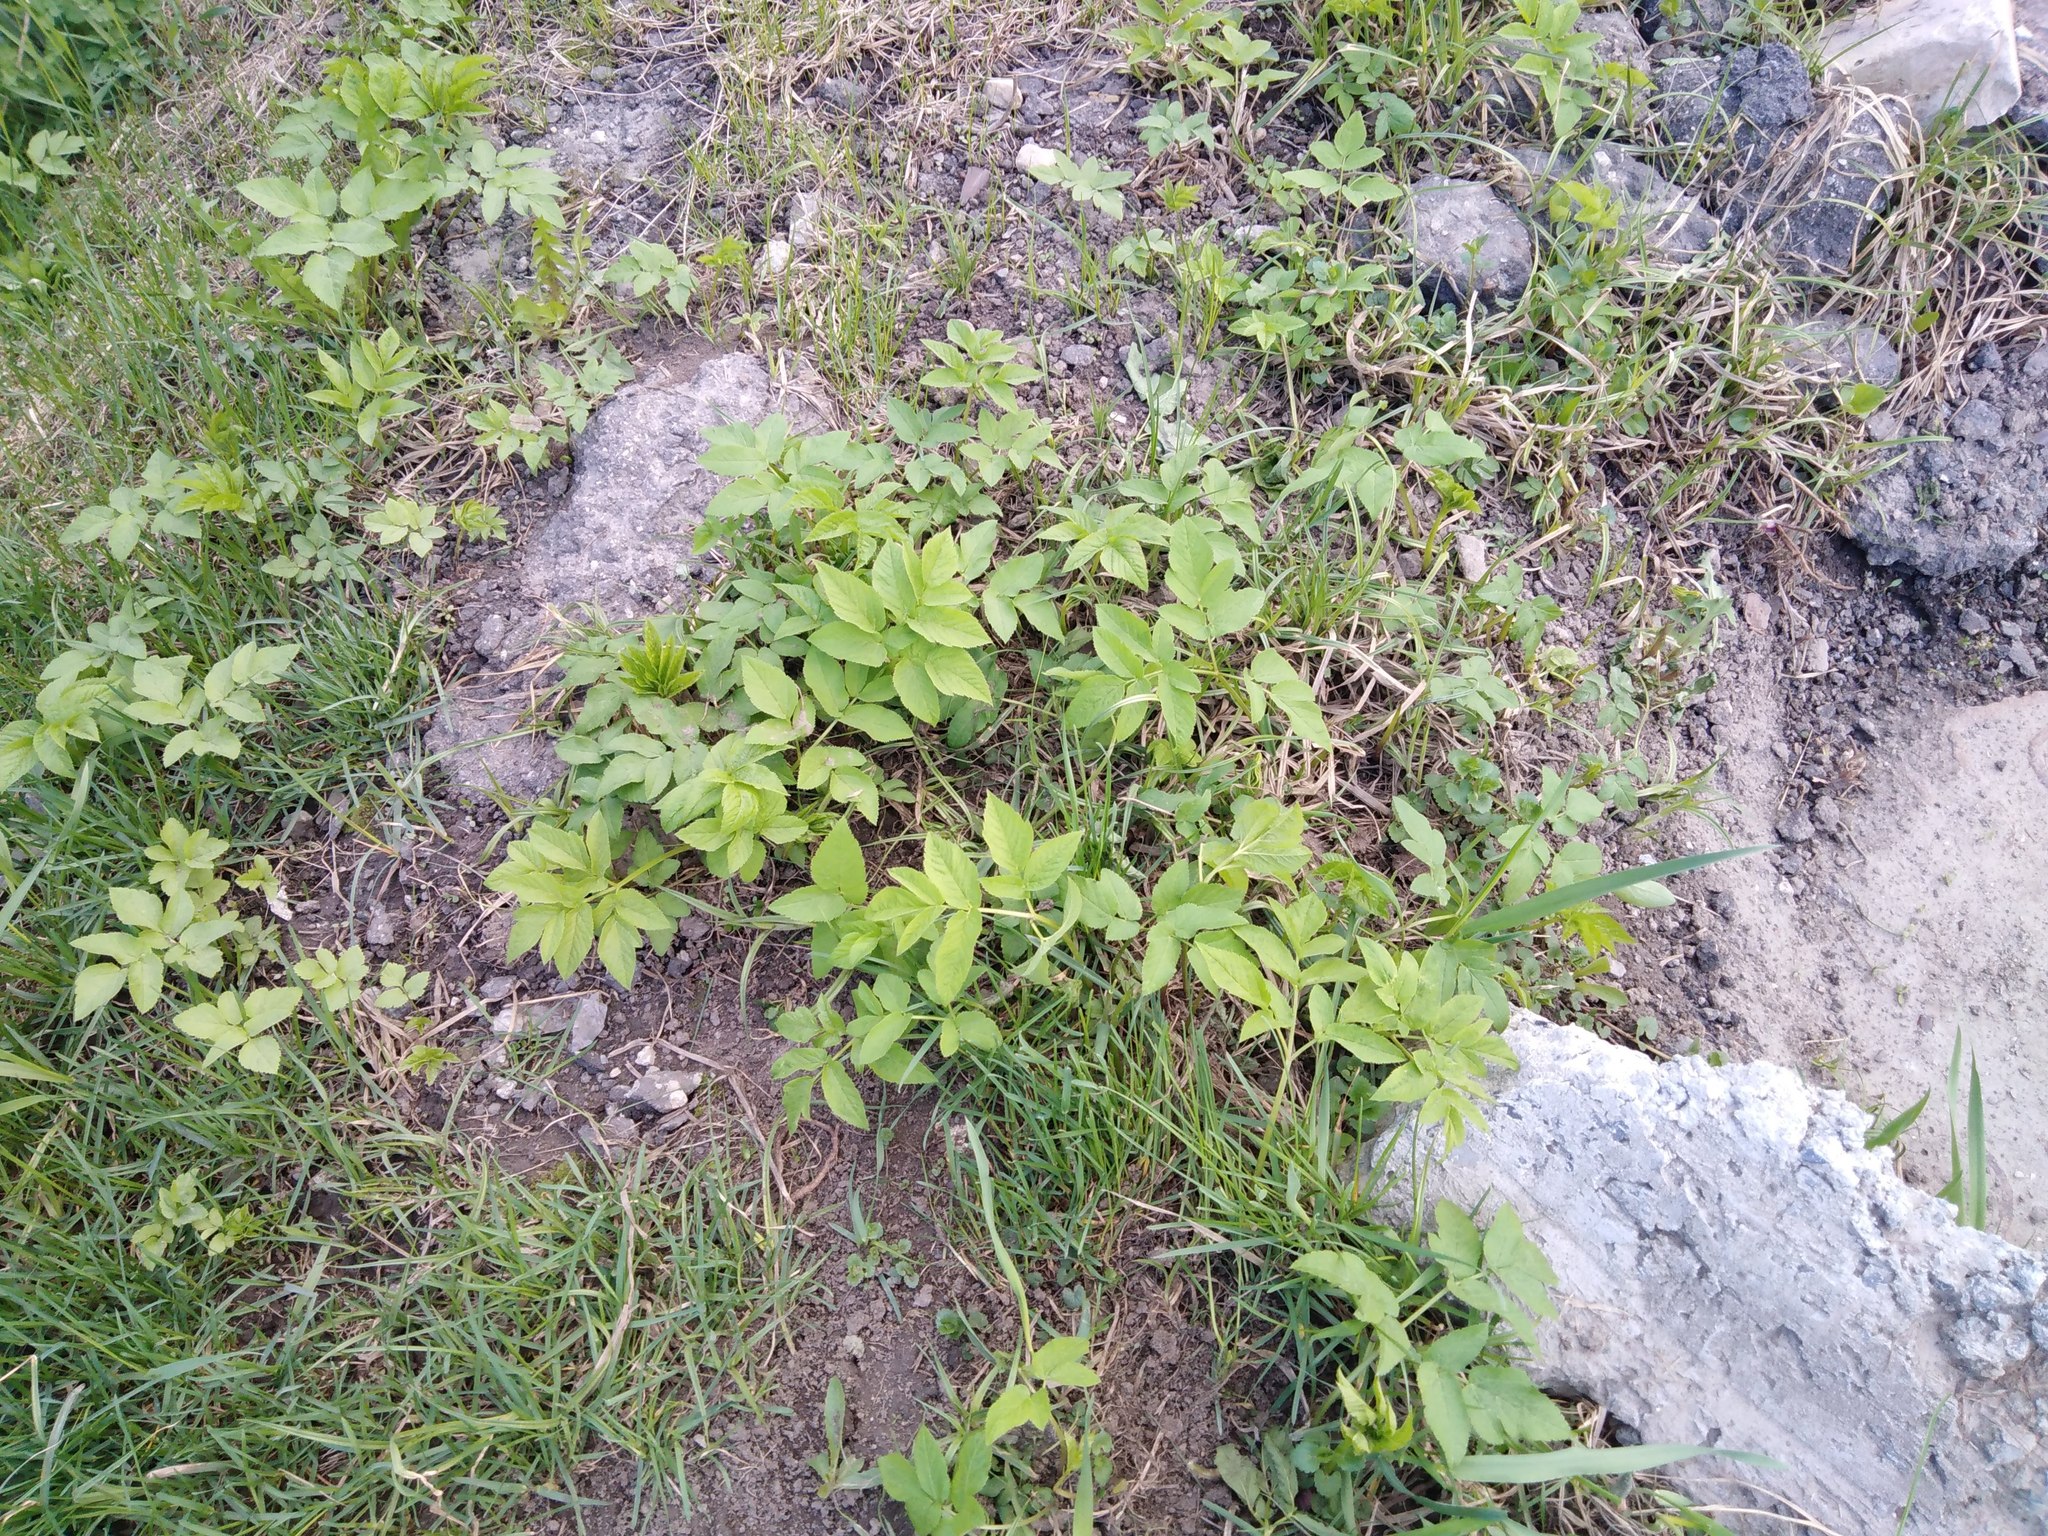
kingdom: Plantae
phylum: Tracheophyta
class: Magnoliopsida
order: Apiales
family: Apiaceae
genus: Aegopodium
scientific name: Aegopodium podagraria
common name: Ground-elder
